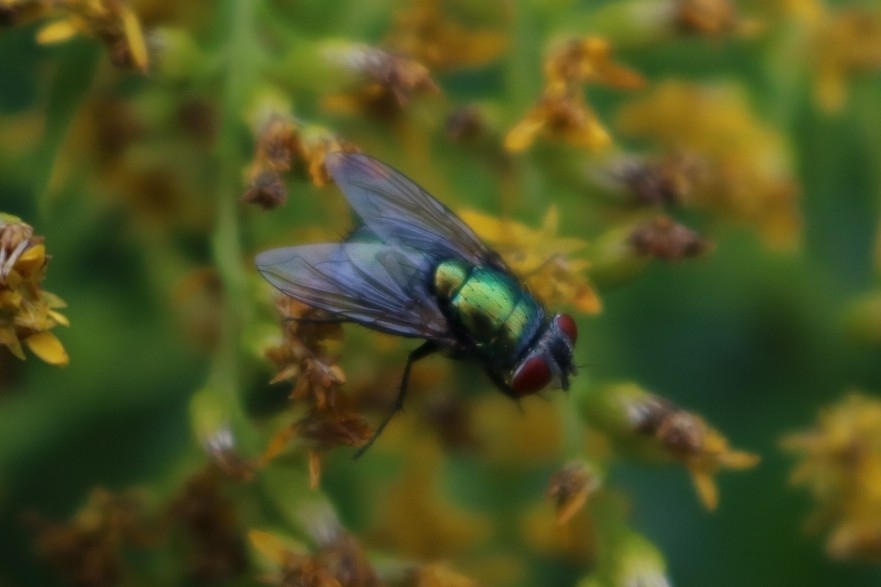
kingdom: Animalia
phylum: Arthropoda
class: Insecta
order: Diptera
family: Calliphoridae
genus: Lucilia
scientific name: Lucilia sericata
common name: Blow fly
